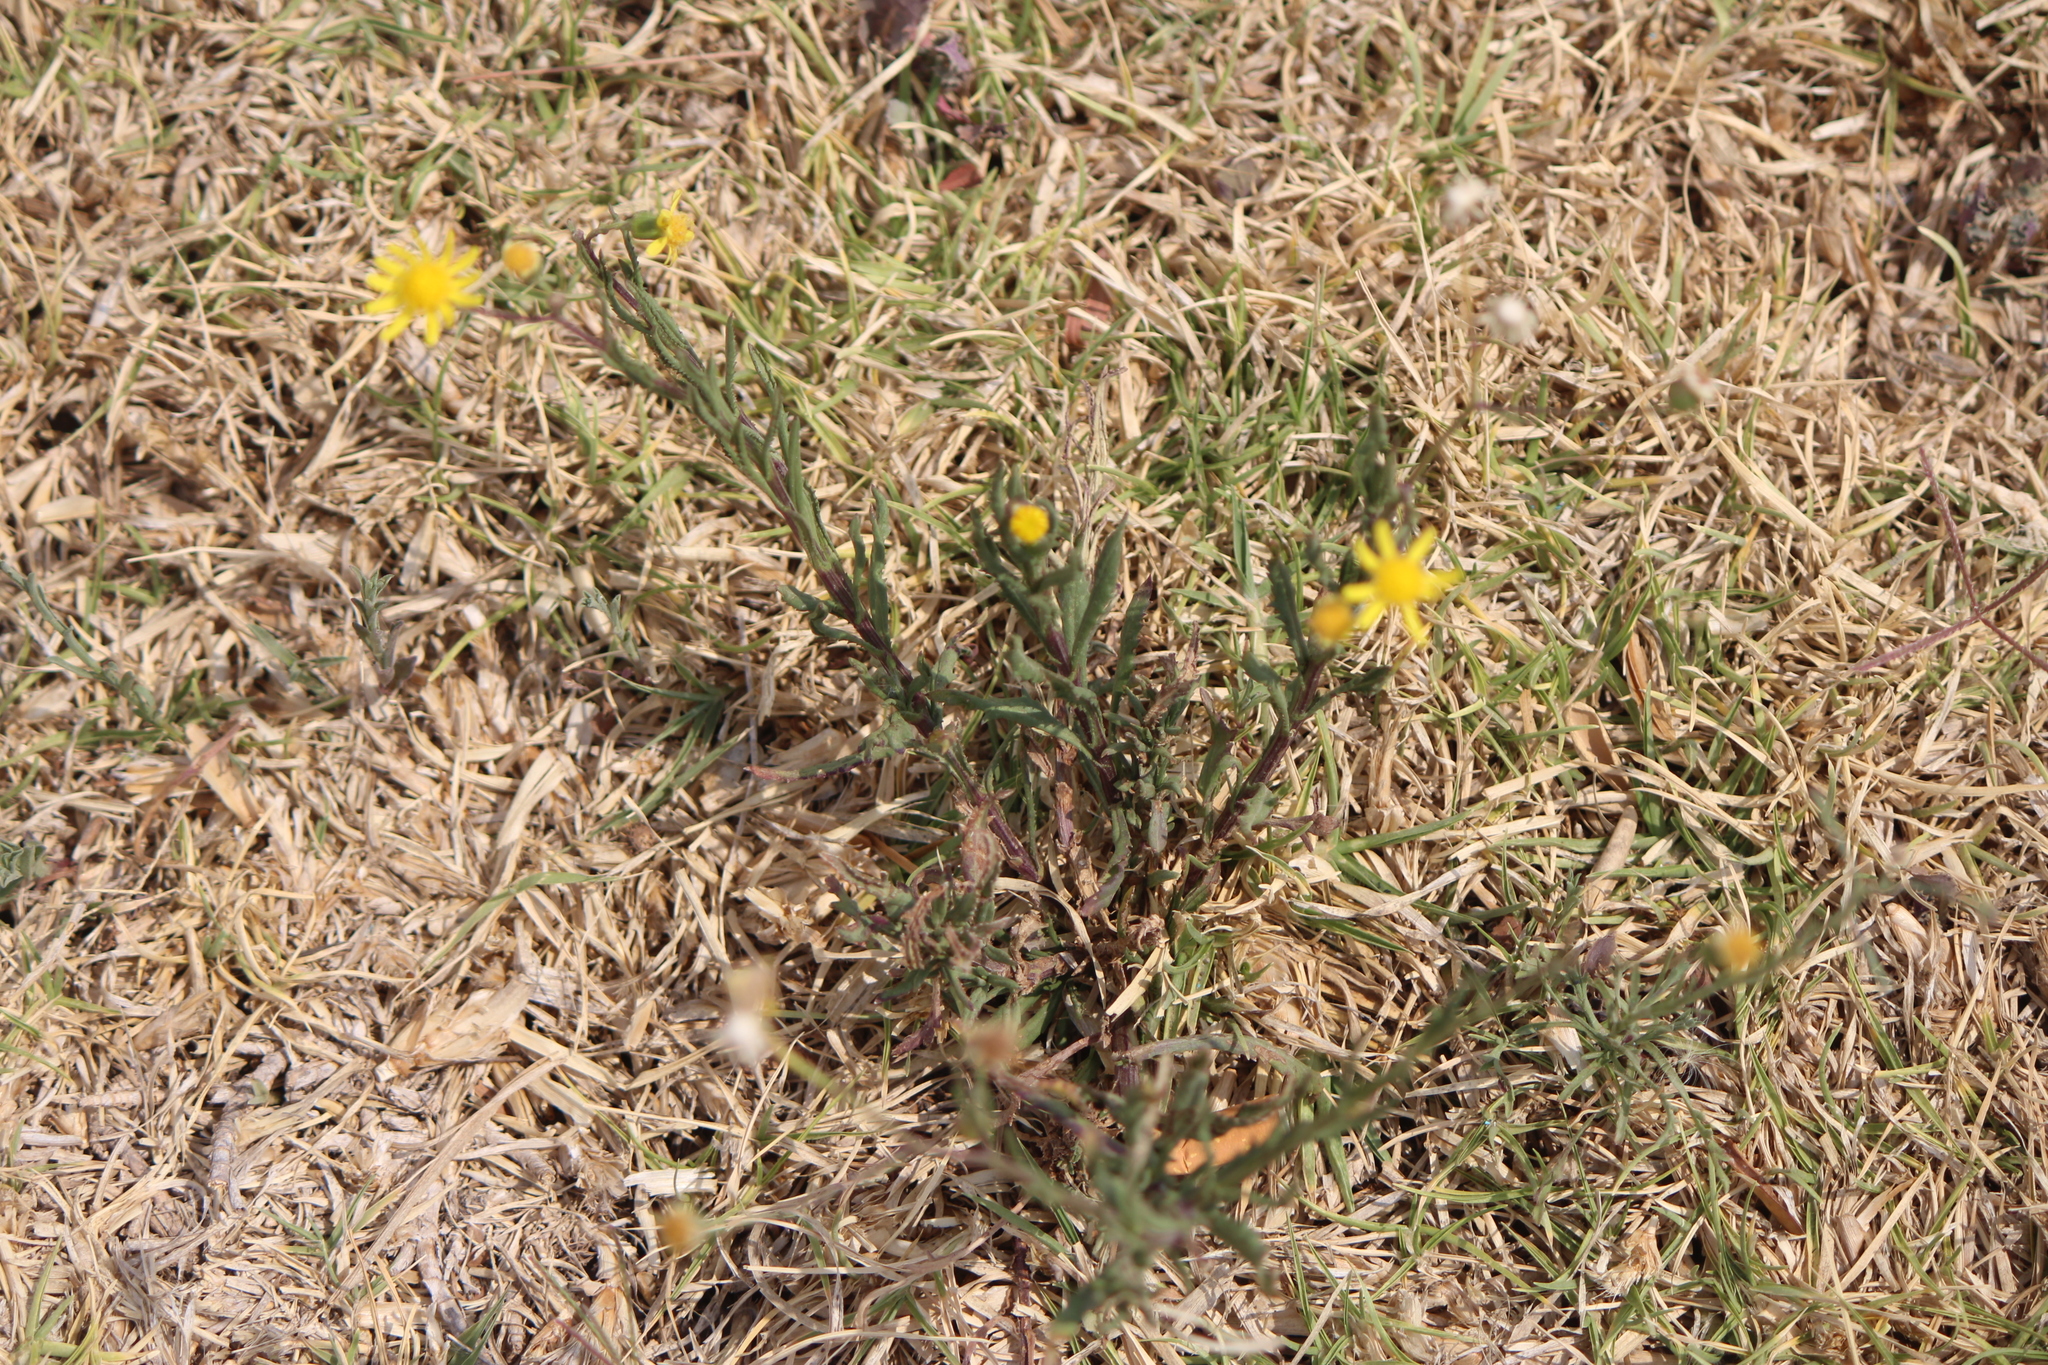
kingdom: Plantae
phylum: Tracheophyta
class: Magnoliopsida
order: Asterales
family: Asteraceae
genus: Senecio
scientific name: Senecio inaequidens
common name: Narrow-leaved ragwort
